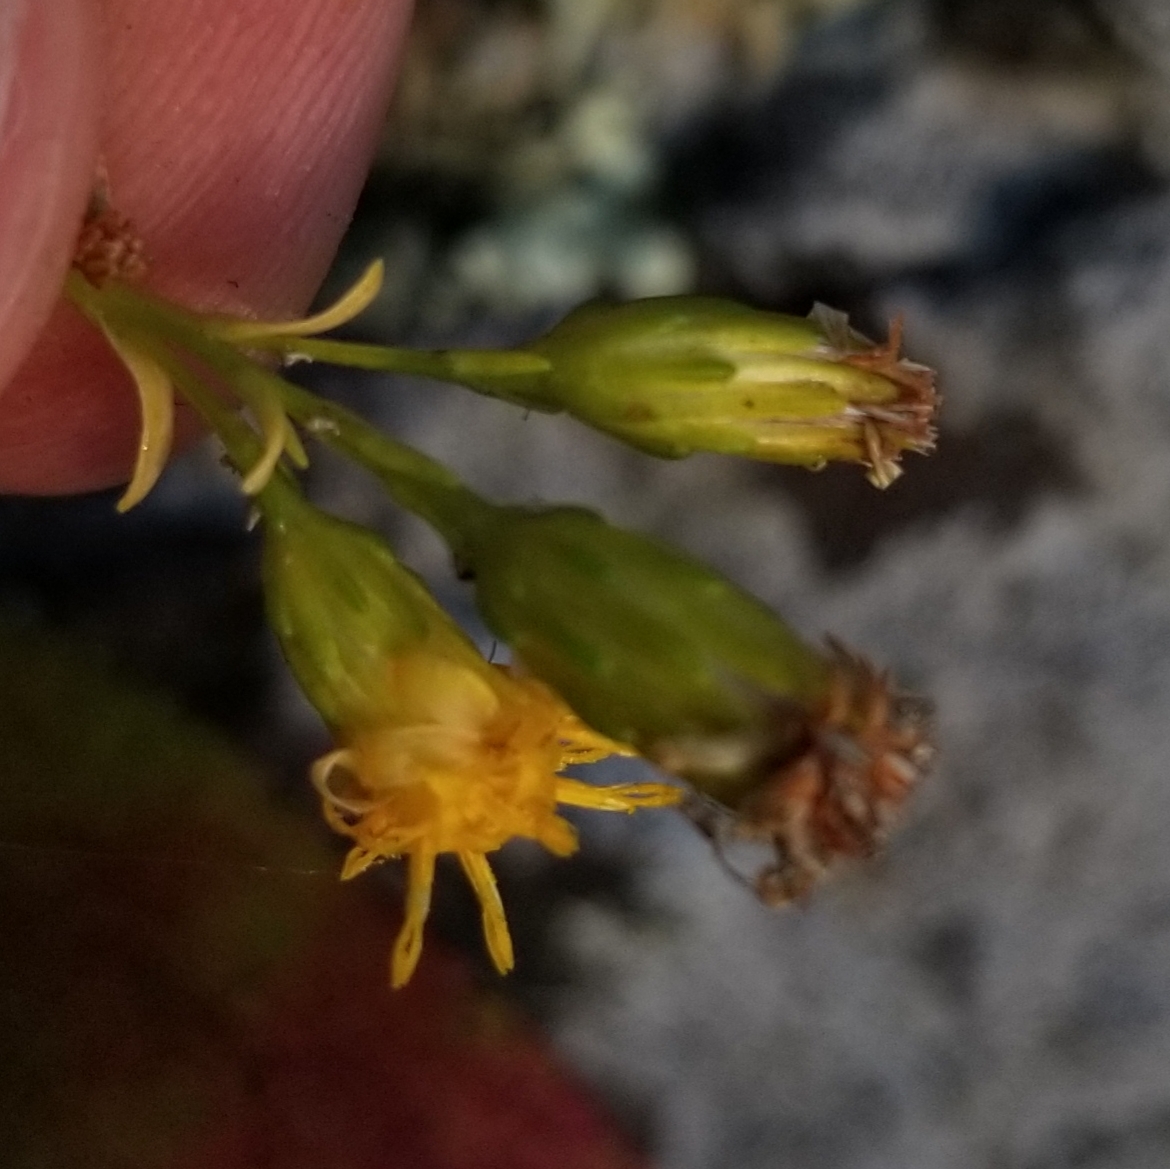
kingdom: Plantae
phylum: Tracheophyta
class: Magnoliopsida
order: Asterales
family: Asteraceae
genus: Solidago
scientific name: Solidago racemosa
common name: Lake ontario goldenrod
